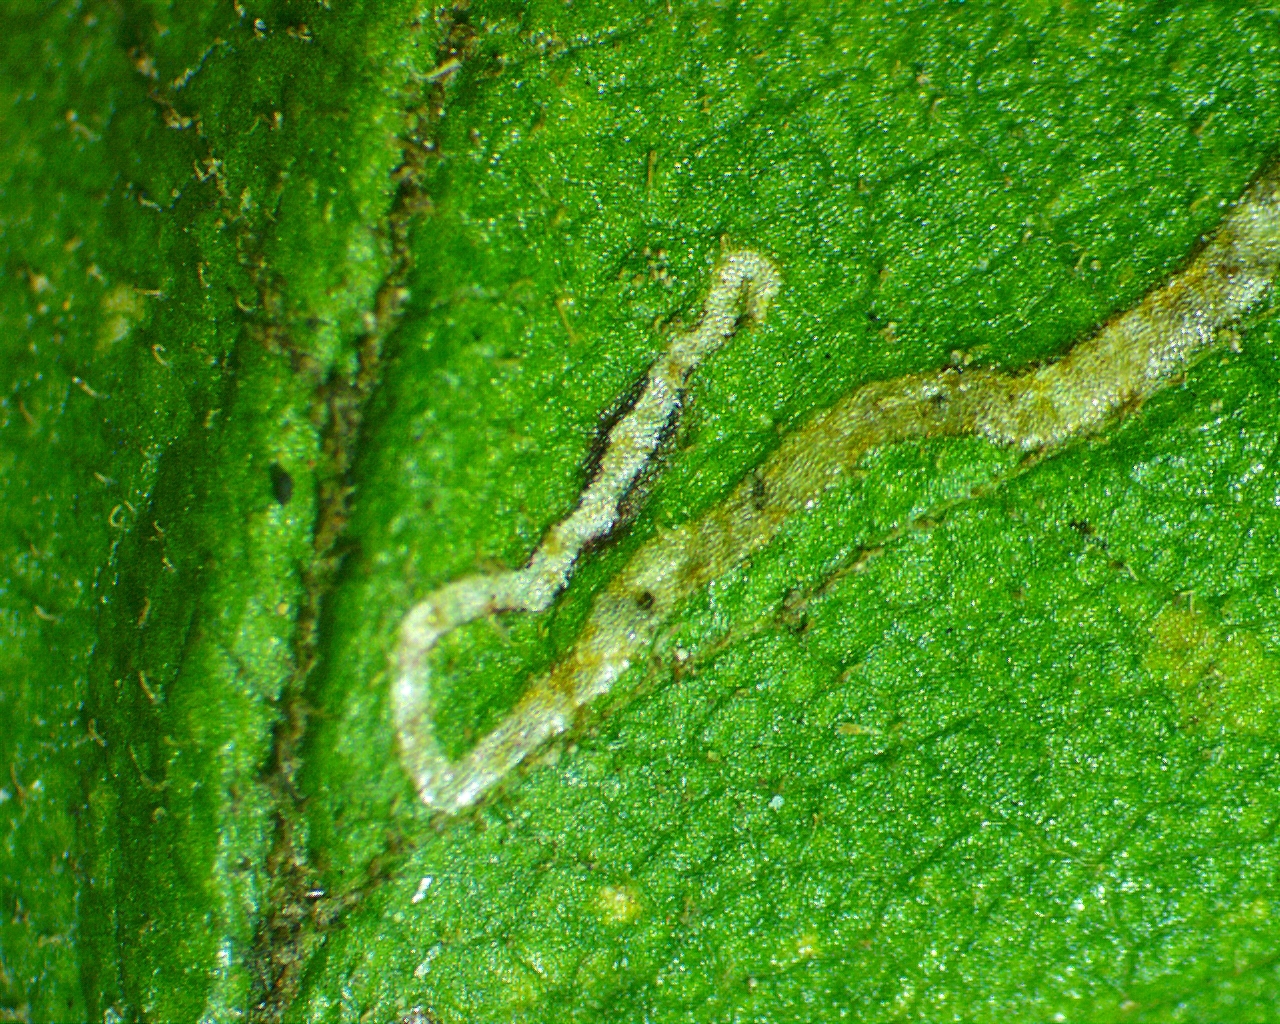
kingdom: Animalia
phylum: Arthropoda
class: Insecta
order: Lepidoptera
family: Nepticulidae
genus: Stigmella
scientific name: Stigmella rosaefoliella
